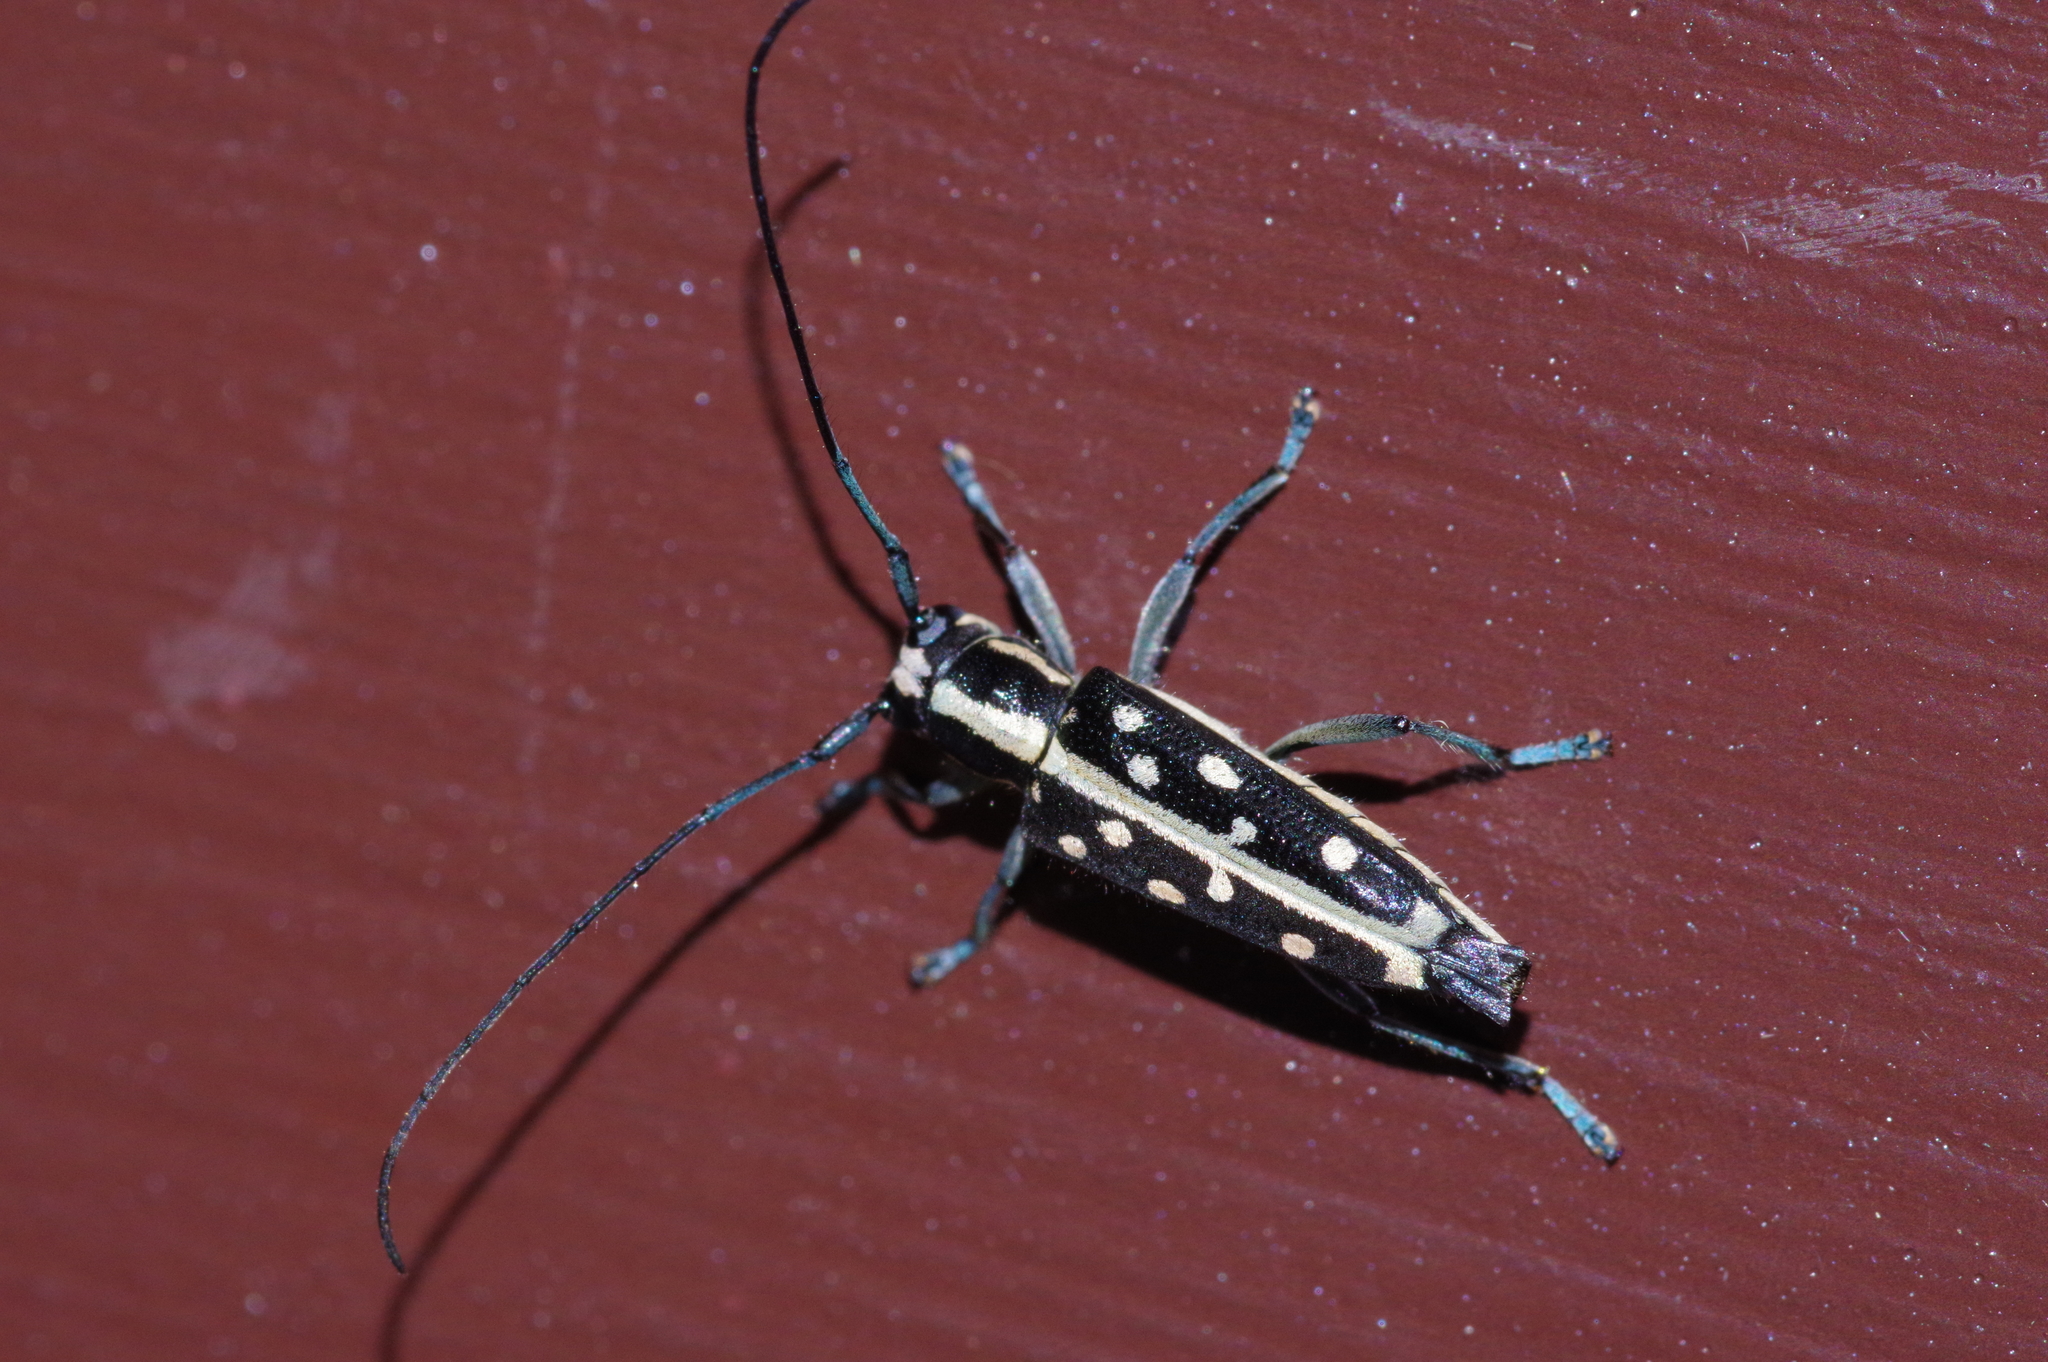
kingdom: Animalia
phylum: Arthropoda
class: Insecta
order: Coleoptera
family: Cerambycidae
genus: Glenea
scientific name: Glenea chlorospila
